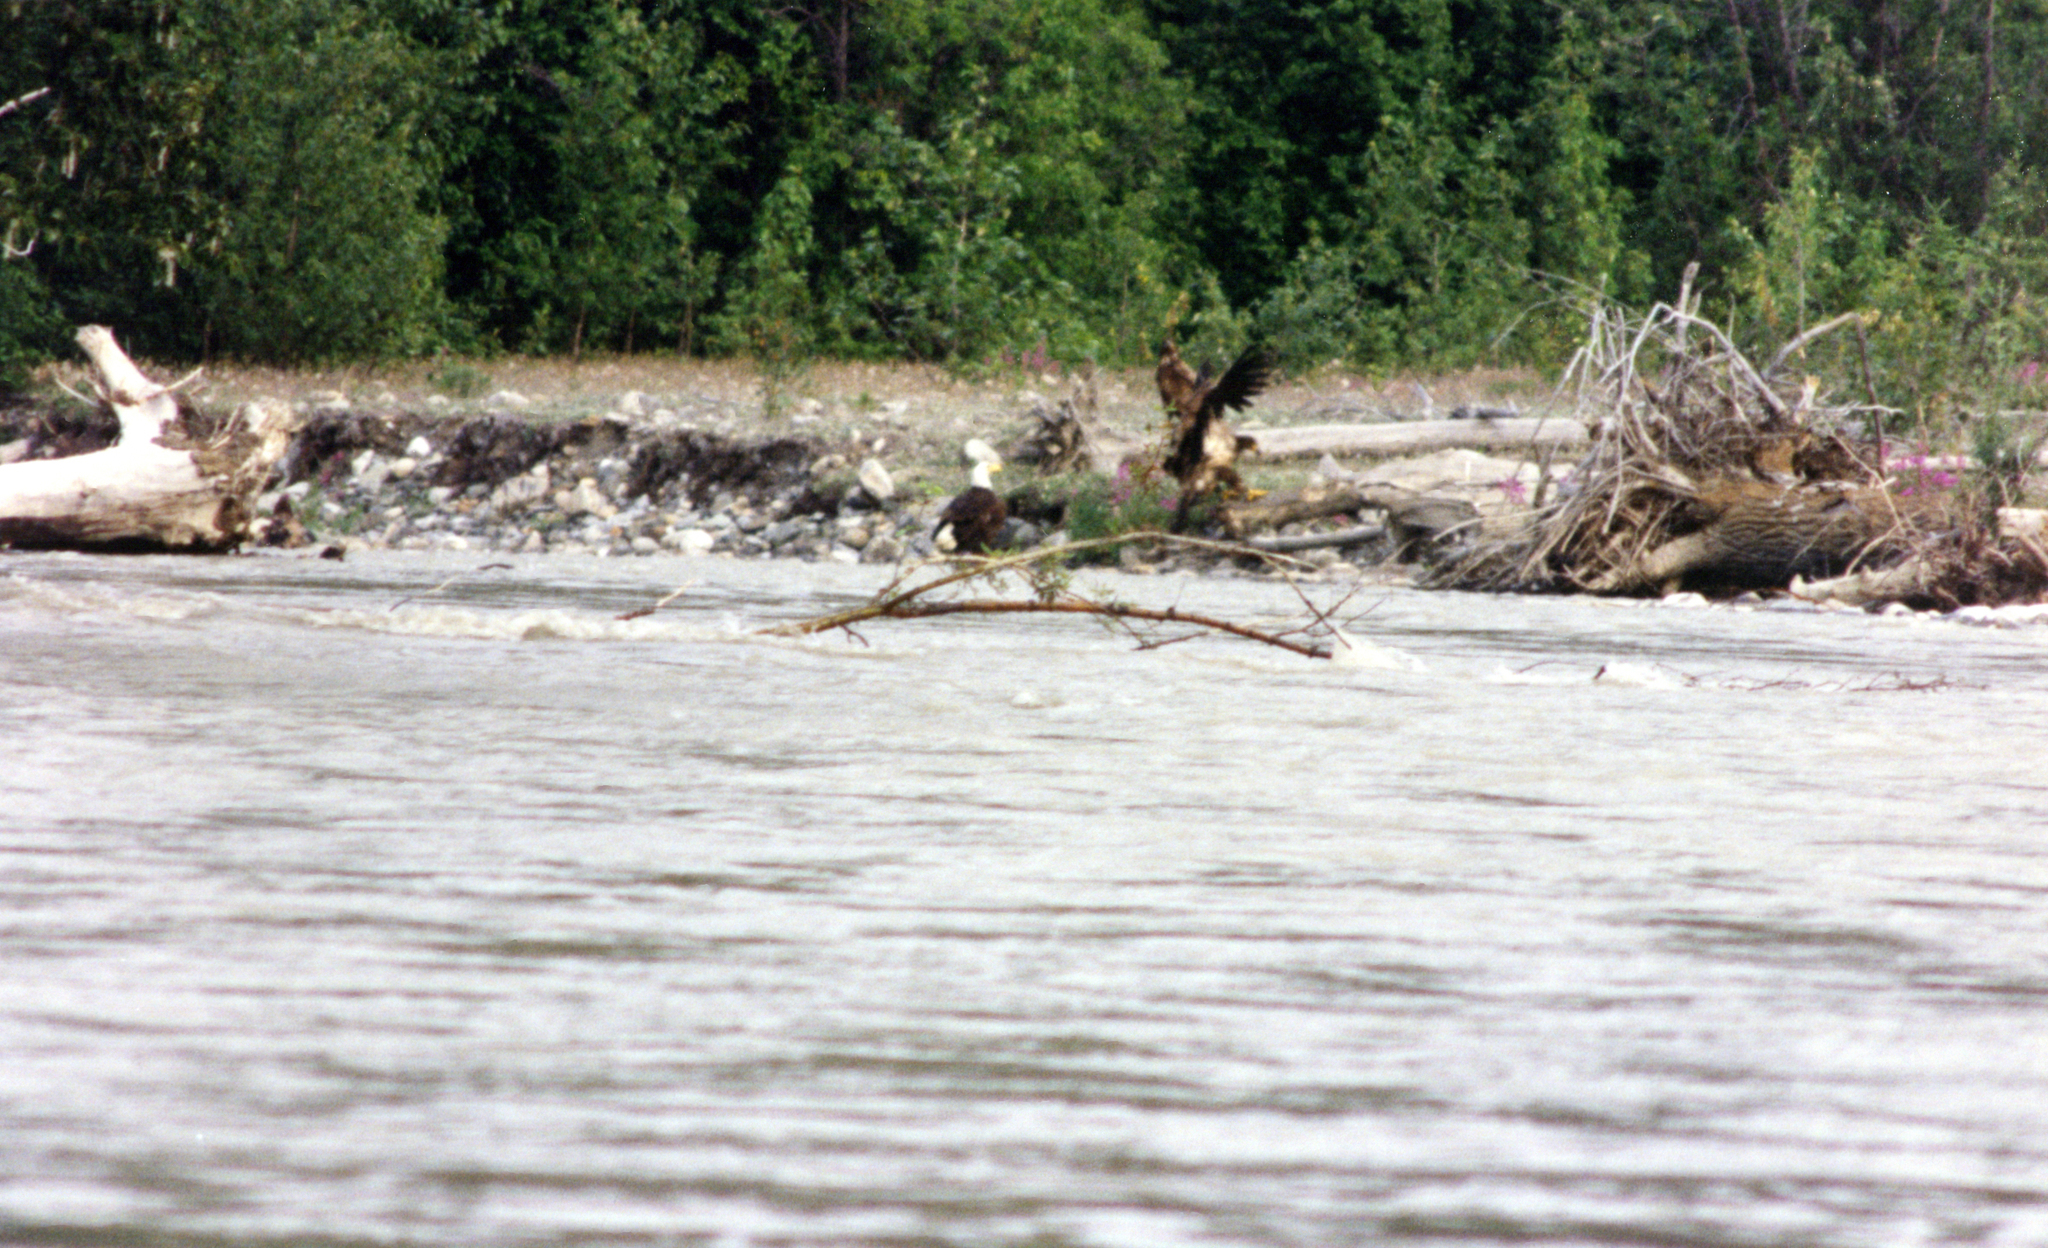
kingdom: Animalia
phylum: Chordata
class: Aves
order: Accipitriformes
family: Accipitridae
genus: Haliaeetus
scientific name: Haliaeetus leucocephalus
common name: Bald eagle
